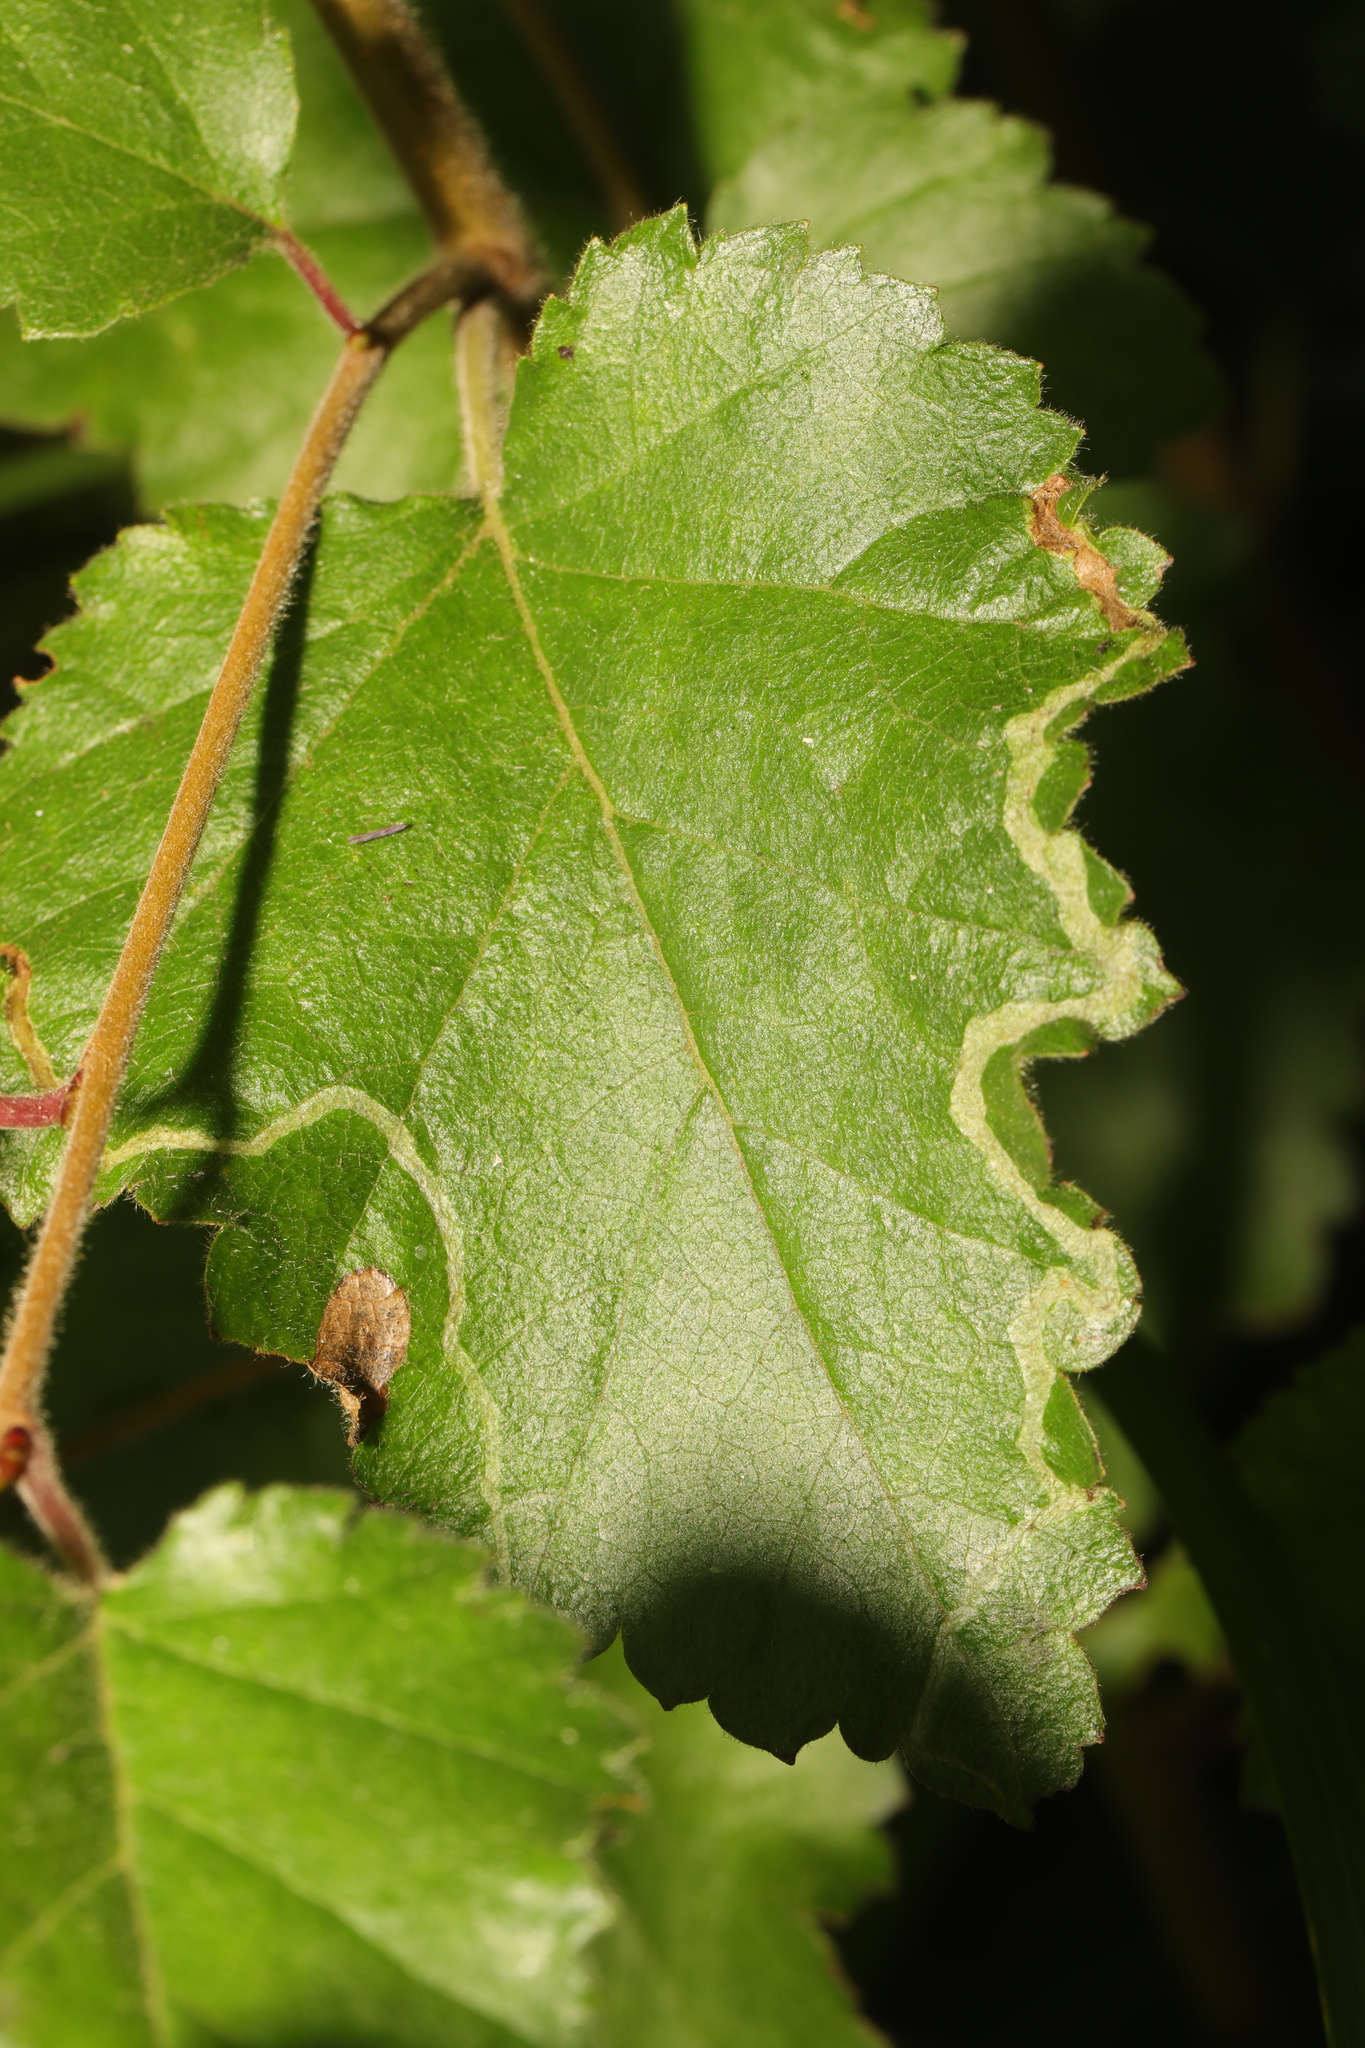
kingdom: Plantae
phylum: Tracheophyta
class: Magnoliopsida
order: Fagales
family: Betulaceae
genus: Betula
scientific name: Betula pubescens
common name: Downy birch
